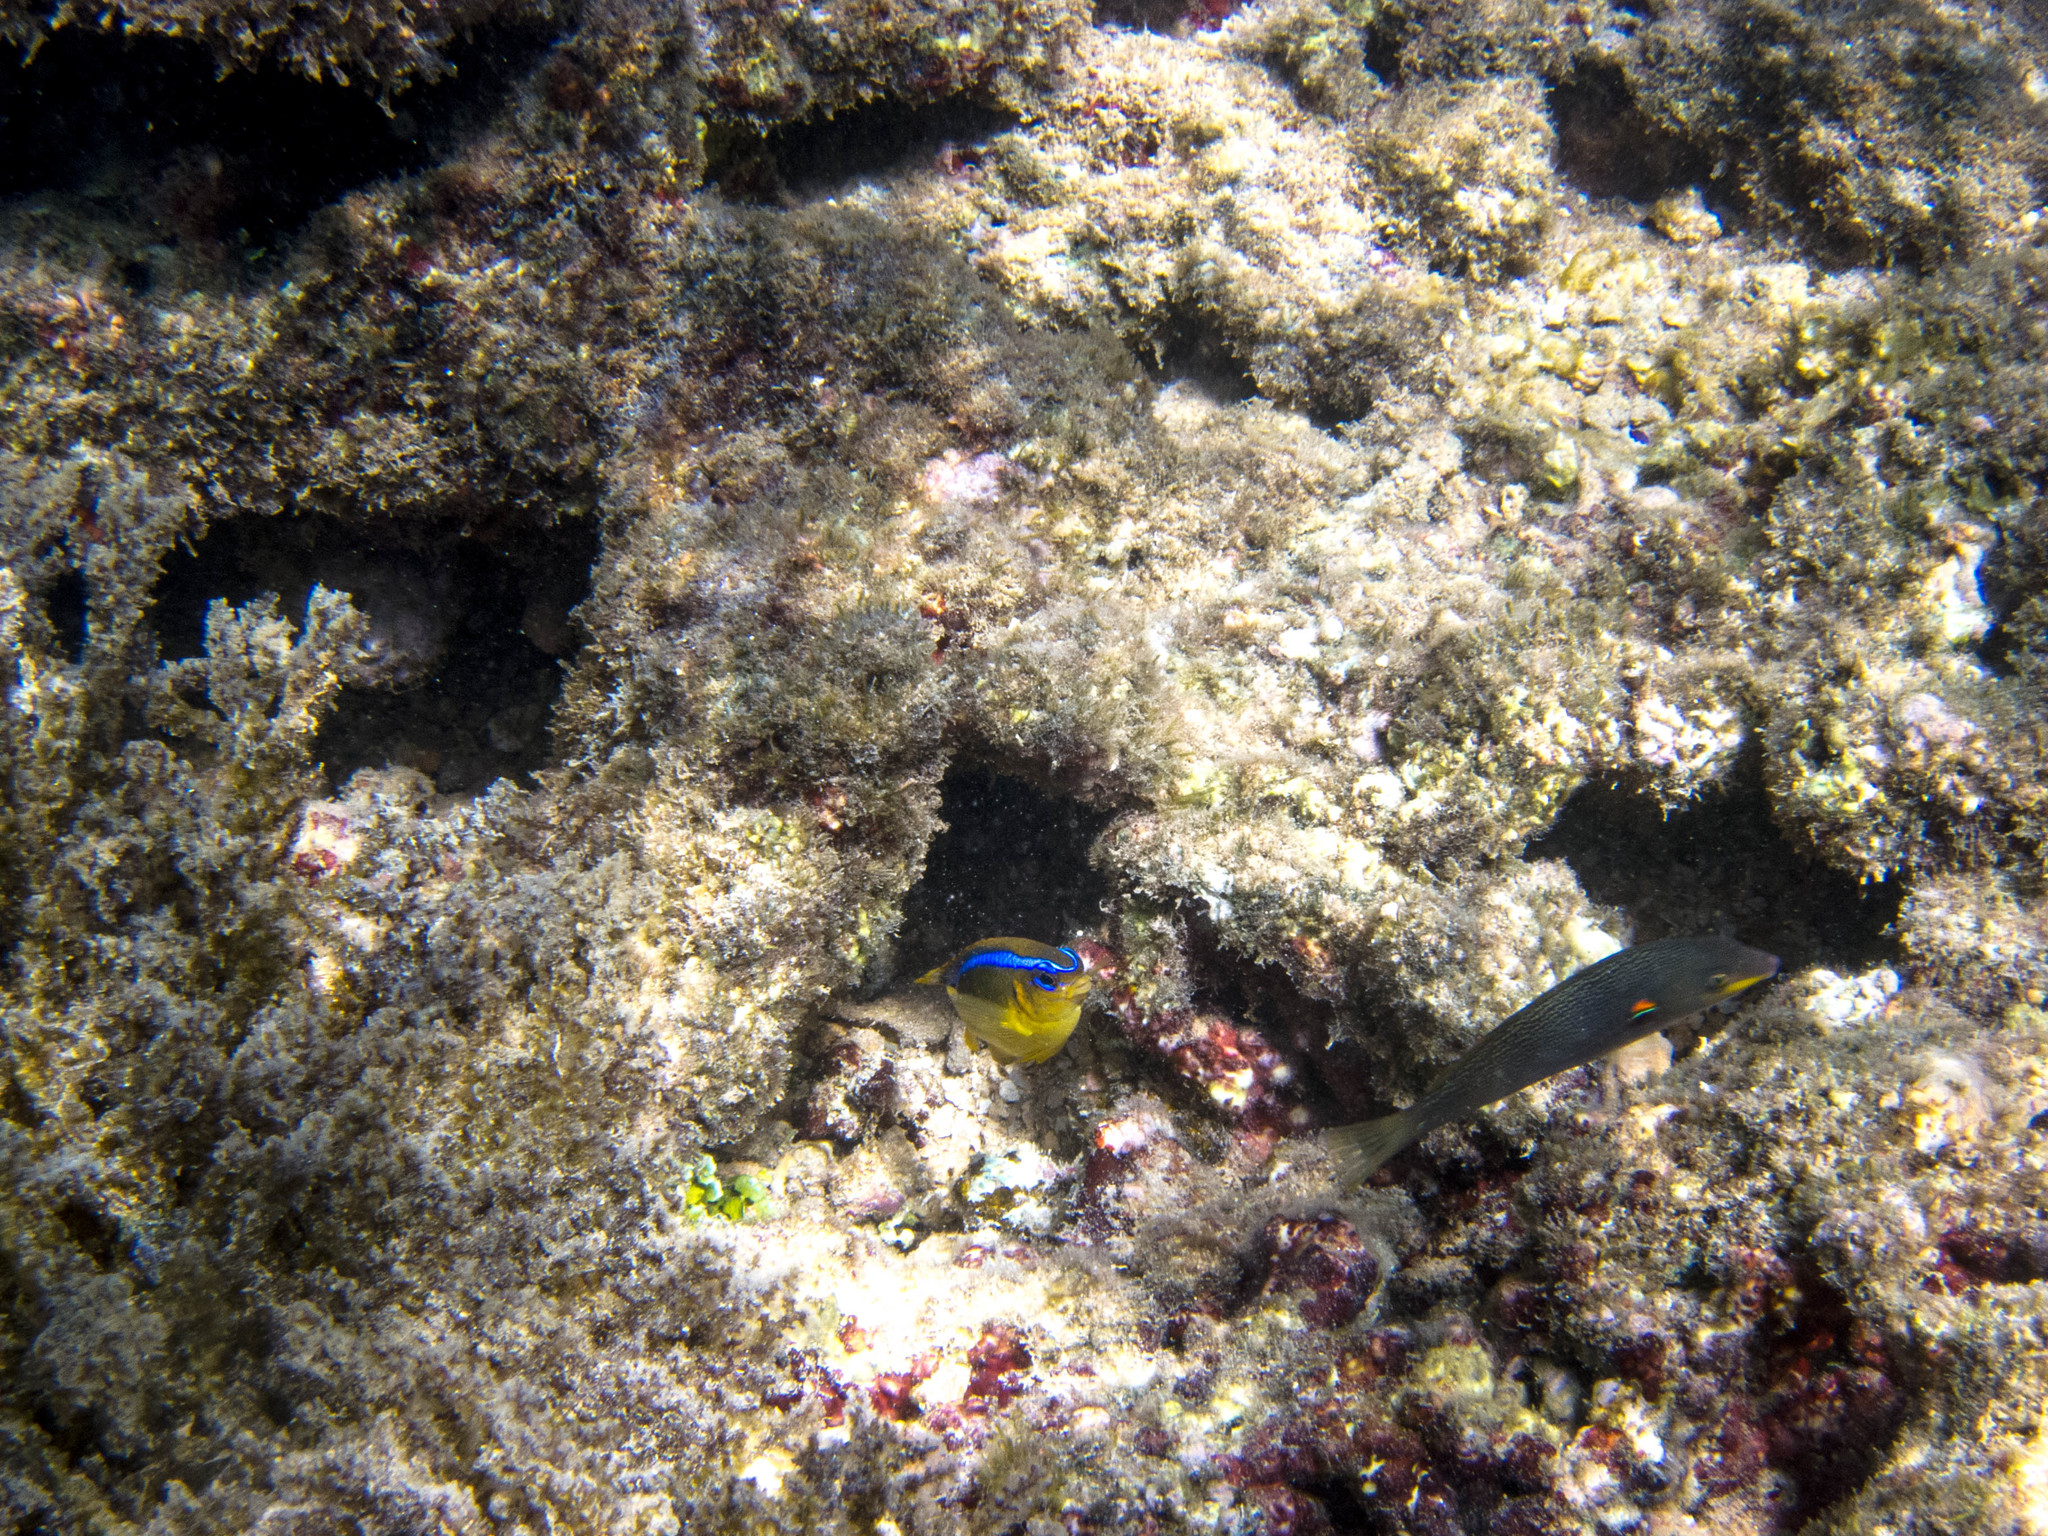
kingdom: Animalia
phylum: Chordata
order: Perciformes
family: Labridae
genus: Stethojulis
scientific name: Stethojulis bandanensis
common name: Red shoulder wrasse
